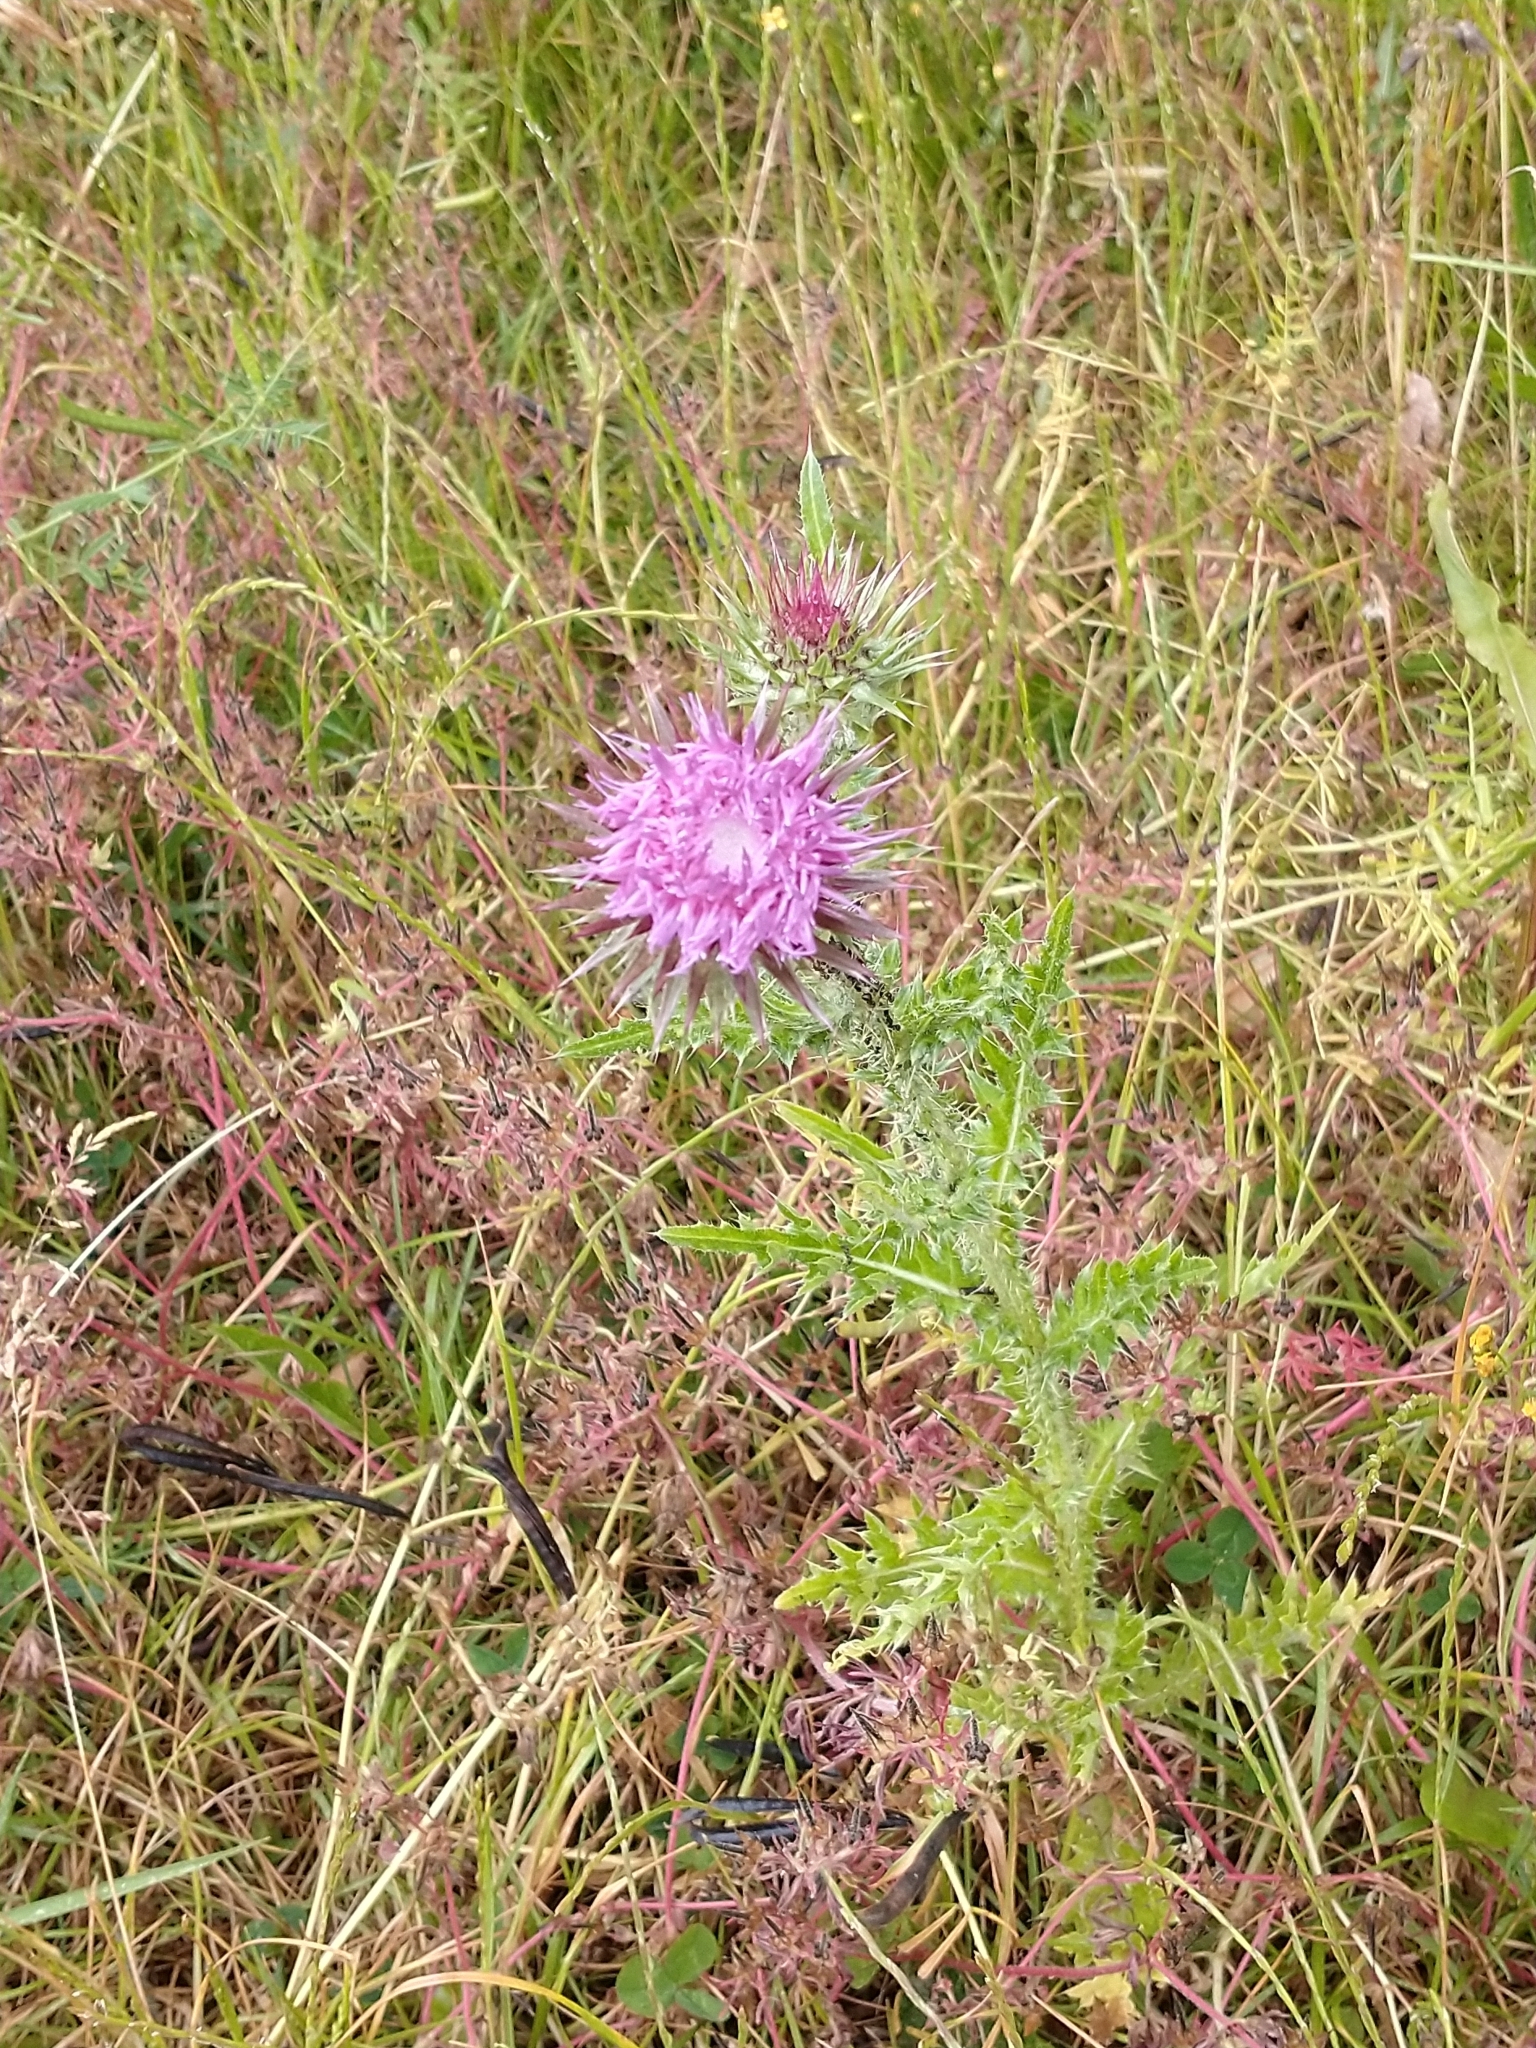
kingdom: Plantae
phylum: Tracheophyta
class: Magnoliopsida
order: Asterales
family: Asteraceae
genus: Carduus
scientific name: Carduus nutans
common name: Musk thistle
